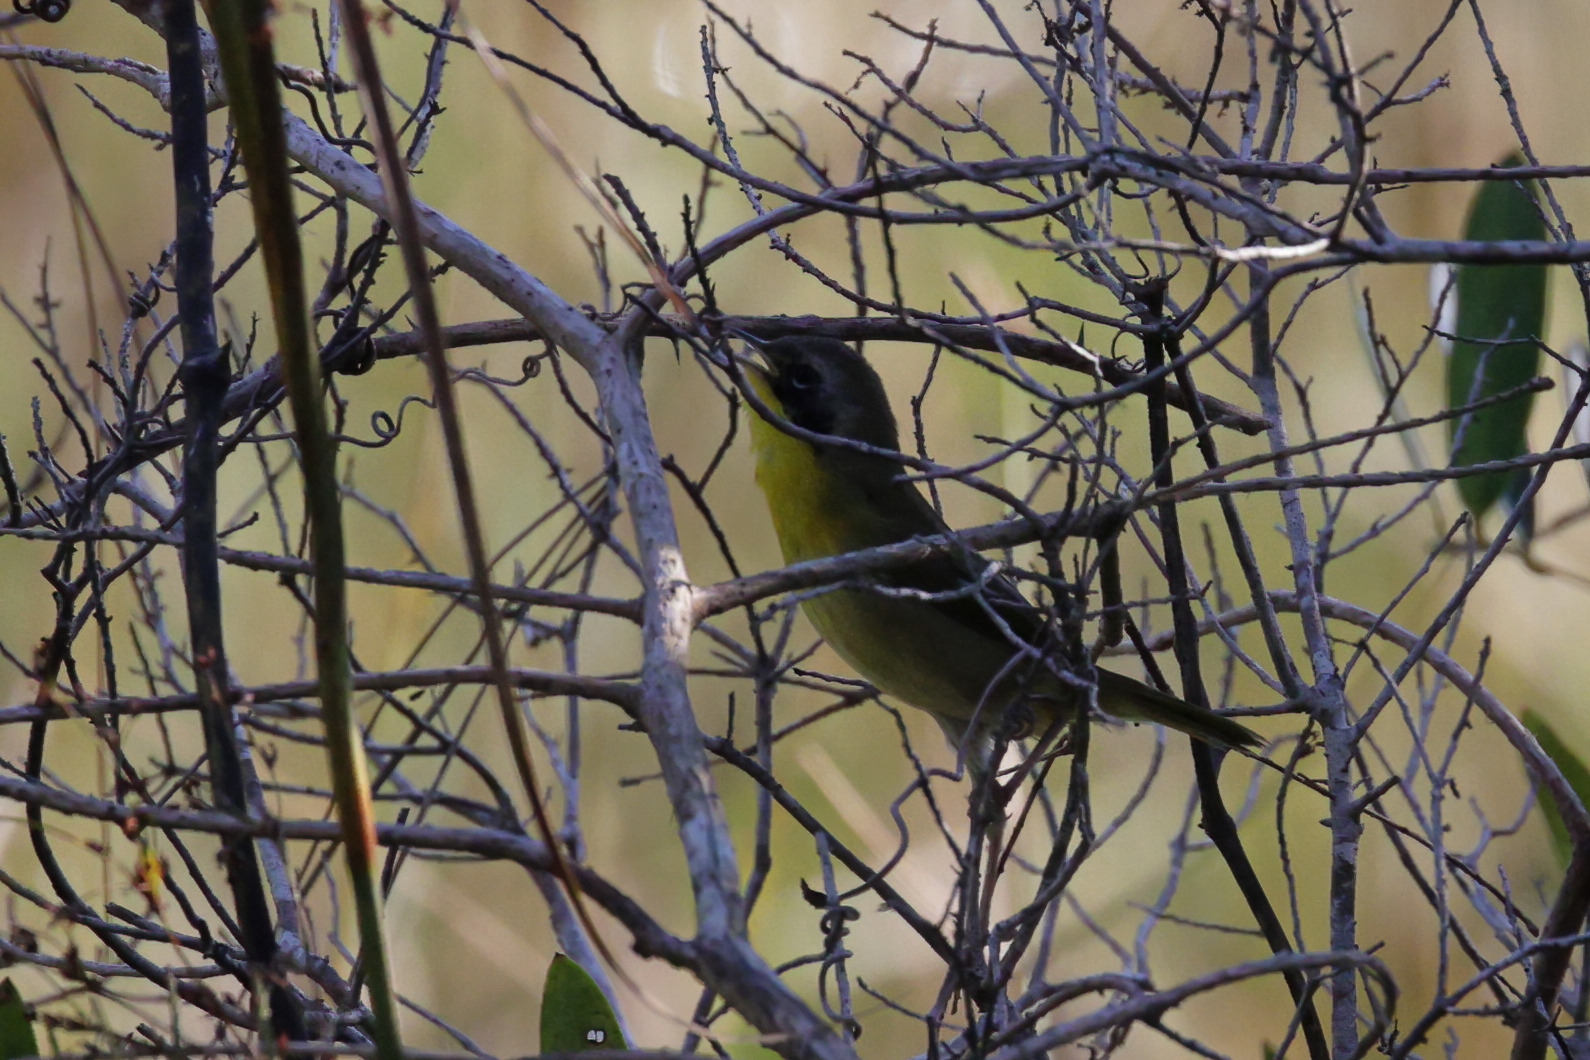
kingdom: Animalia
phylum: Chordata
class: Aves
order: Passeriformes
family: Parulidae
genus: Geothlypis
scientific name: Geothlypis trichas
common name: Common yellowthroat
